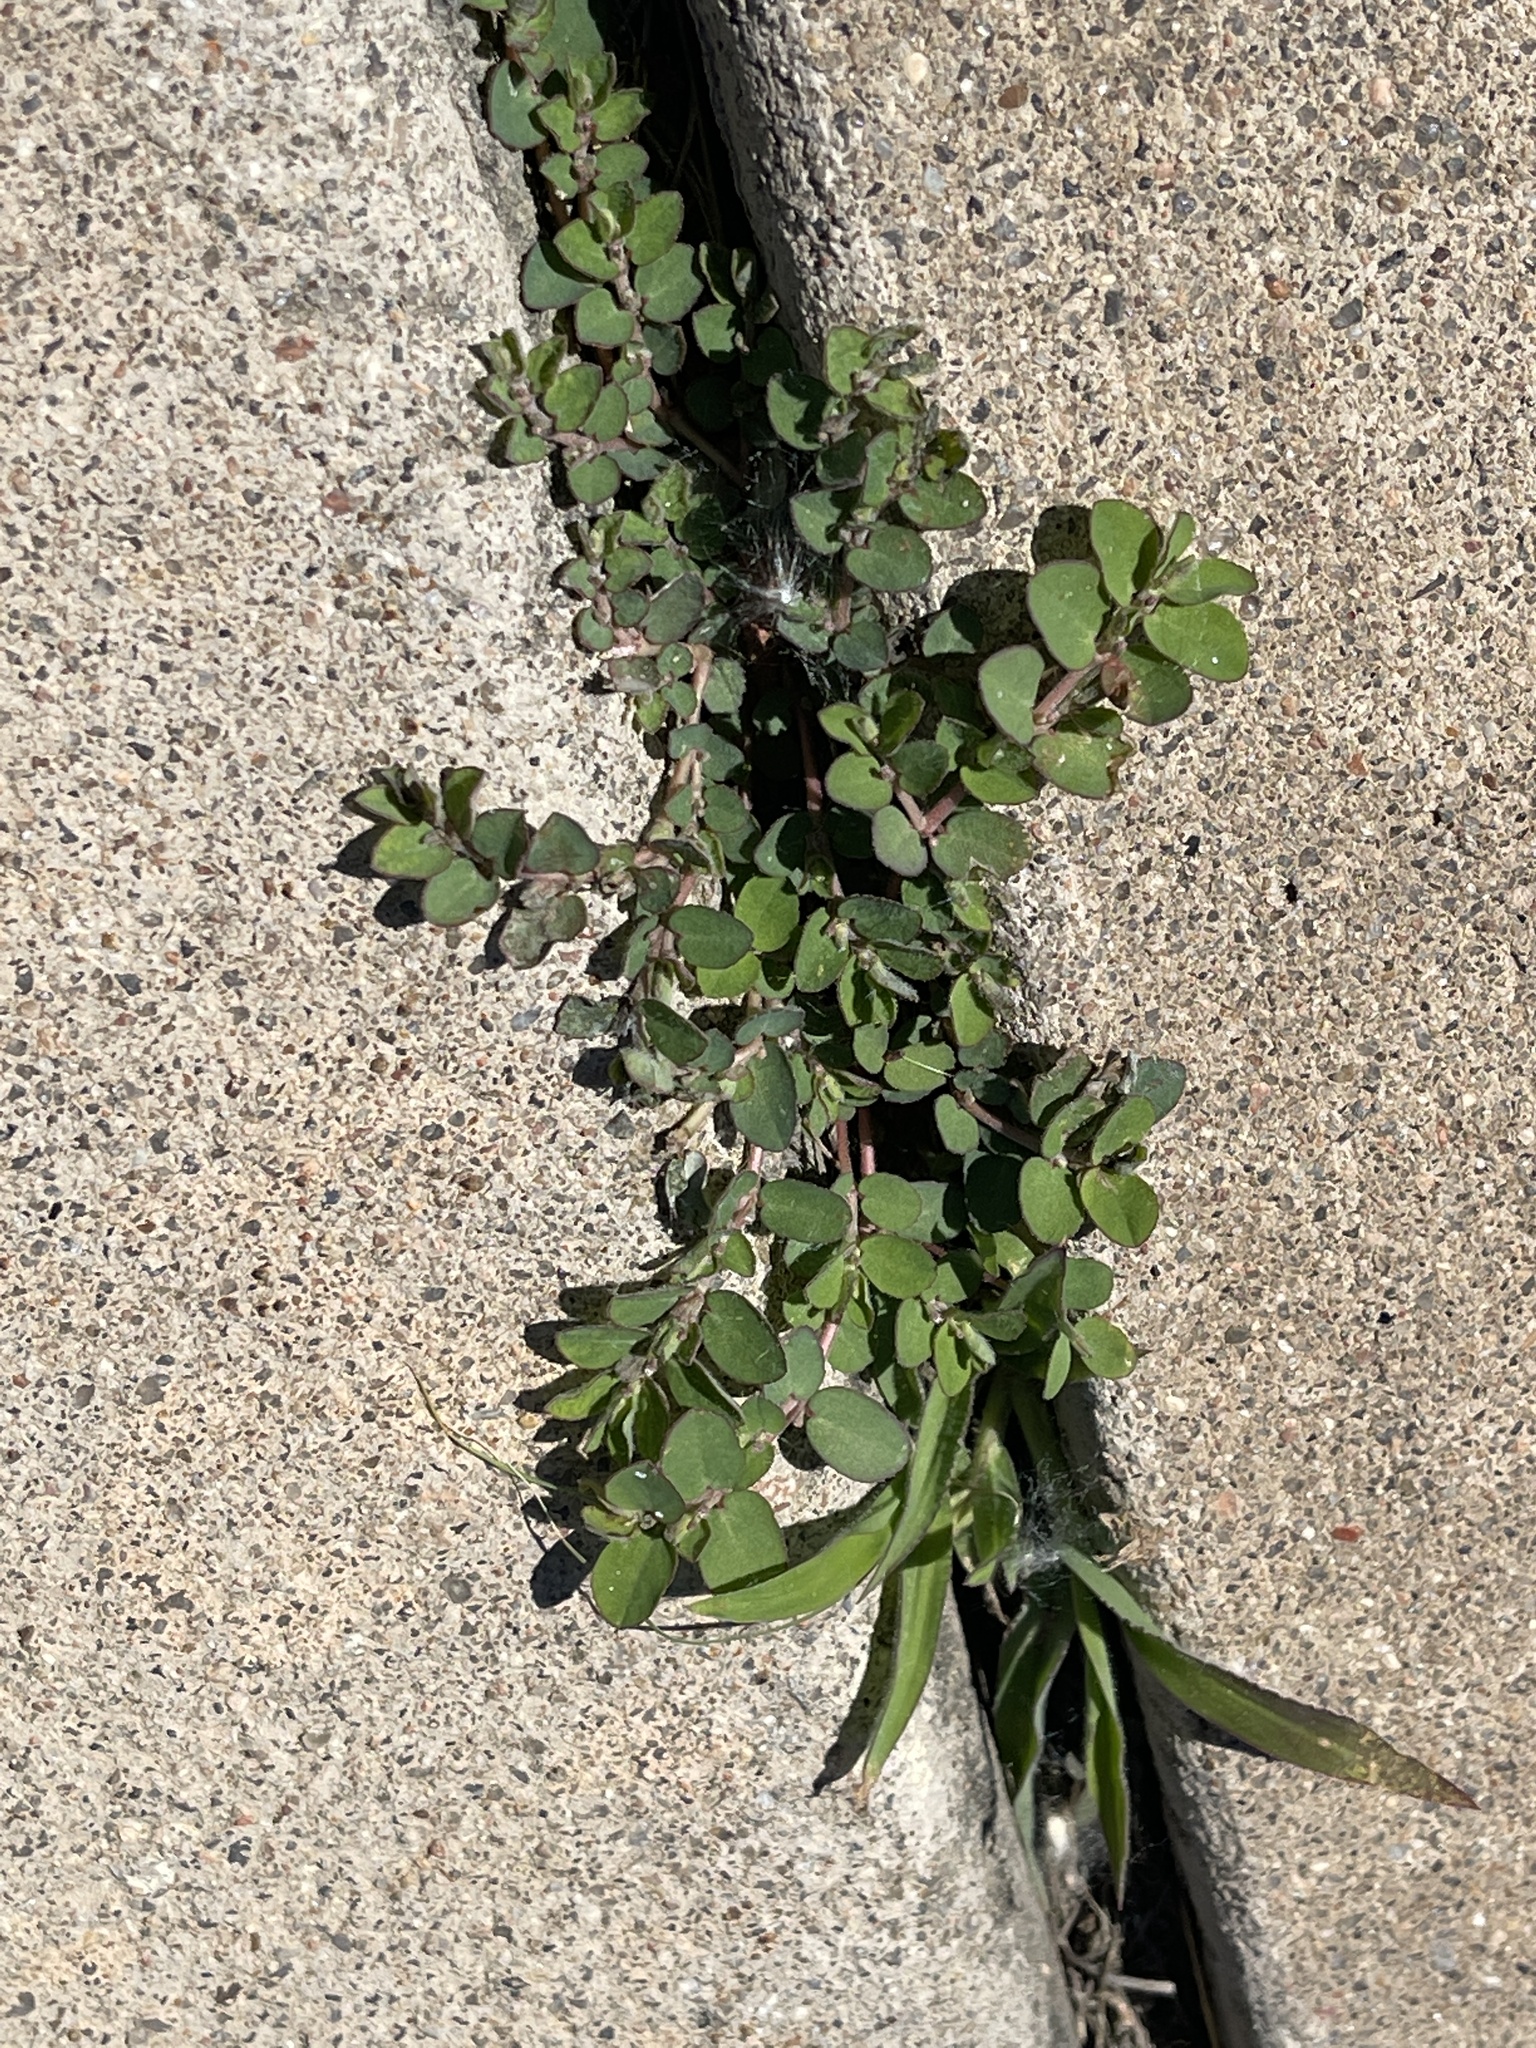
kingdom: Plantae
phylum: Tracheophyta
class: Magnoliopsida
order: Malpighiales
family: Euphorbiaceae
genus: Euphorbia
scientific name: Euphorbia prostrata
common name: Prostrate sandmat
